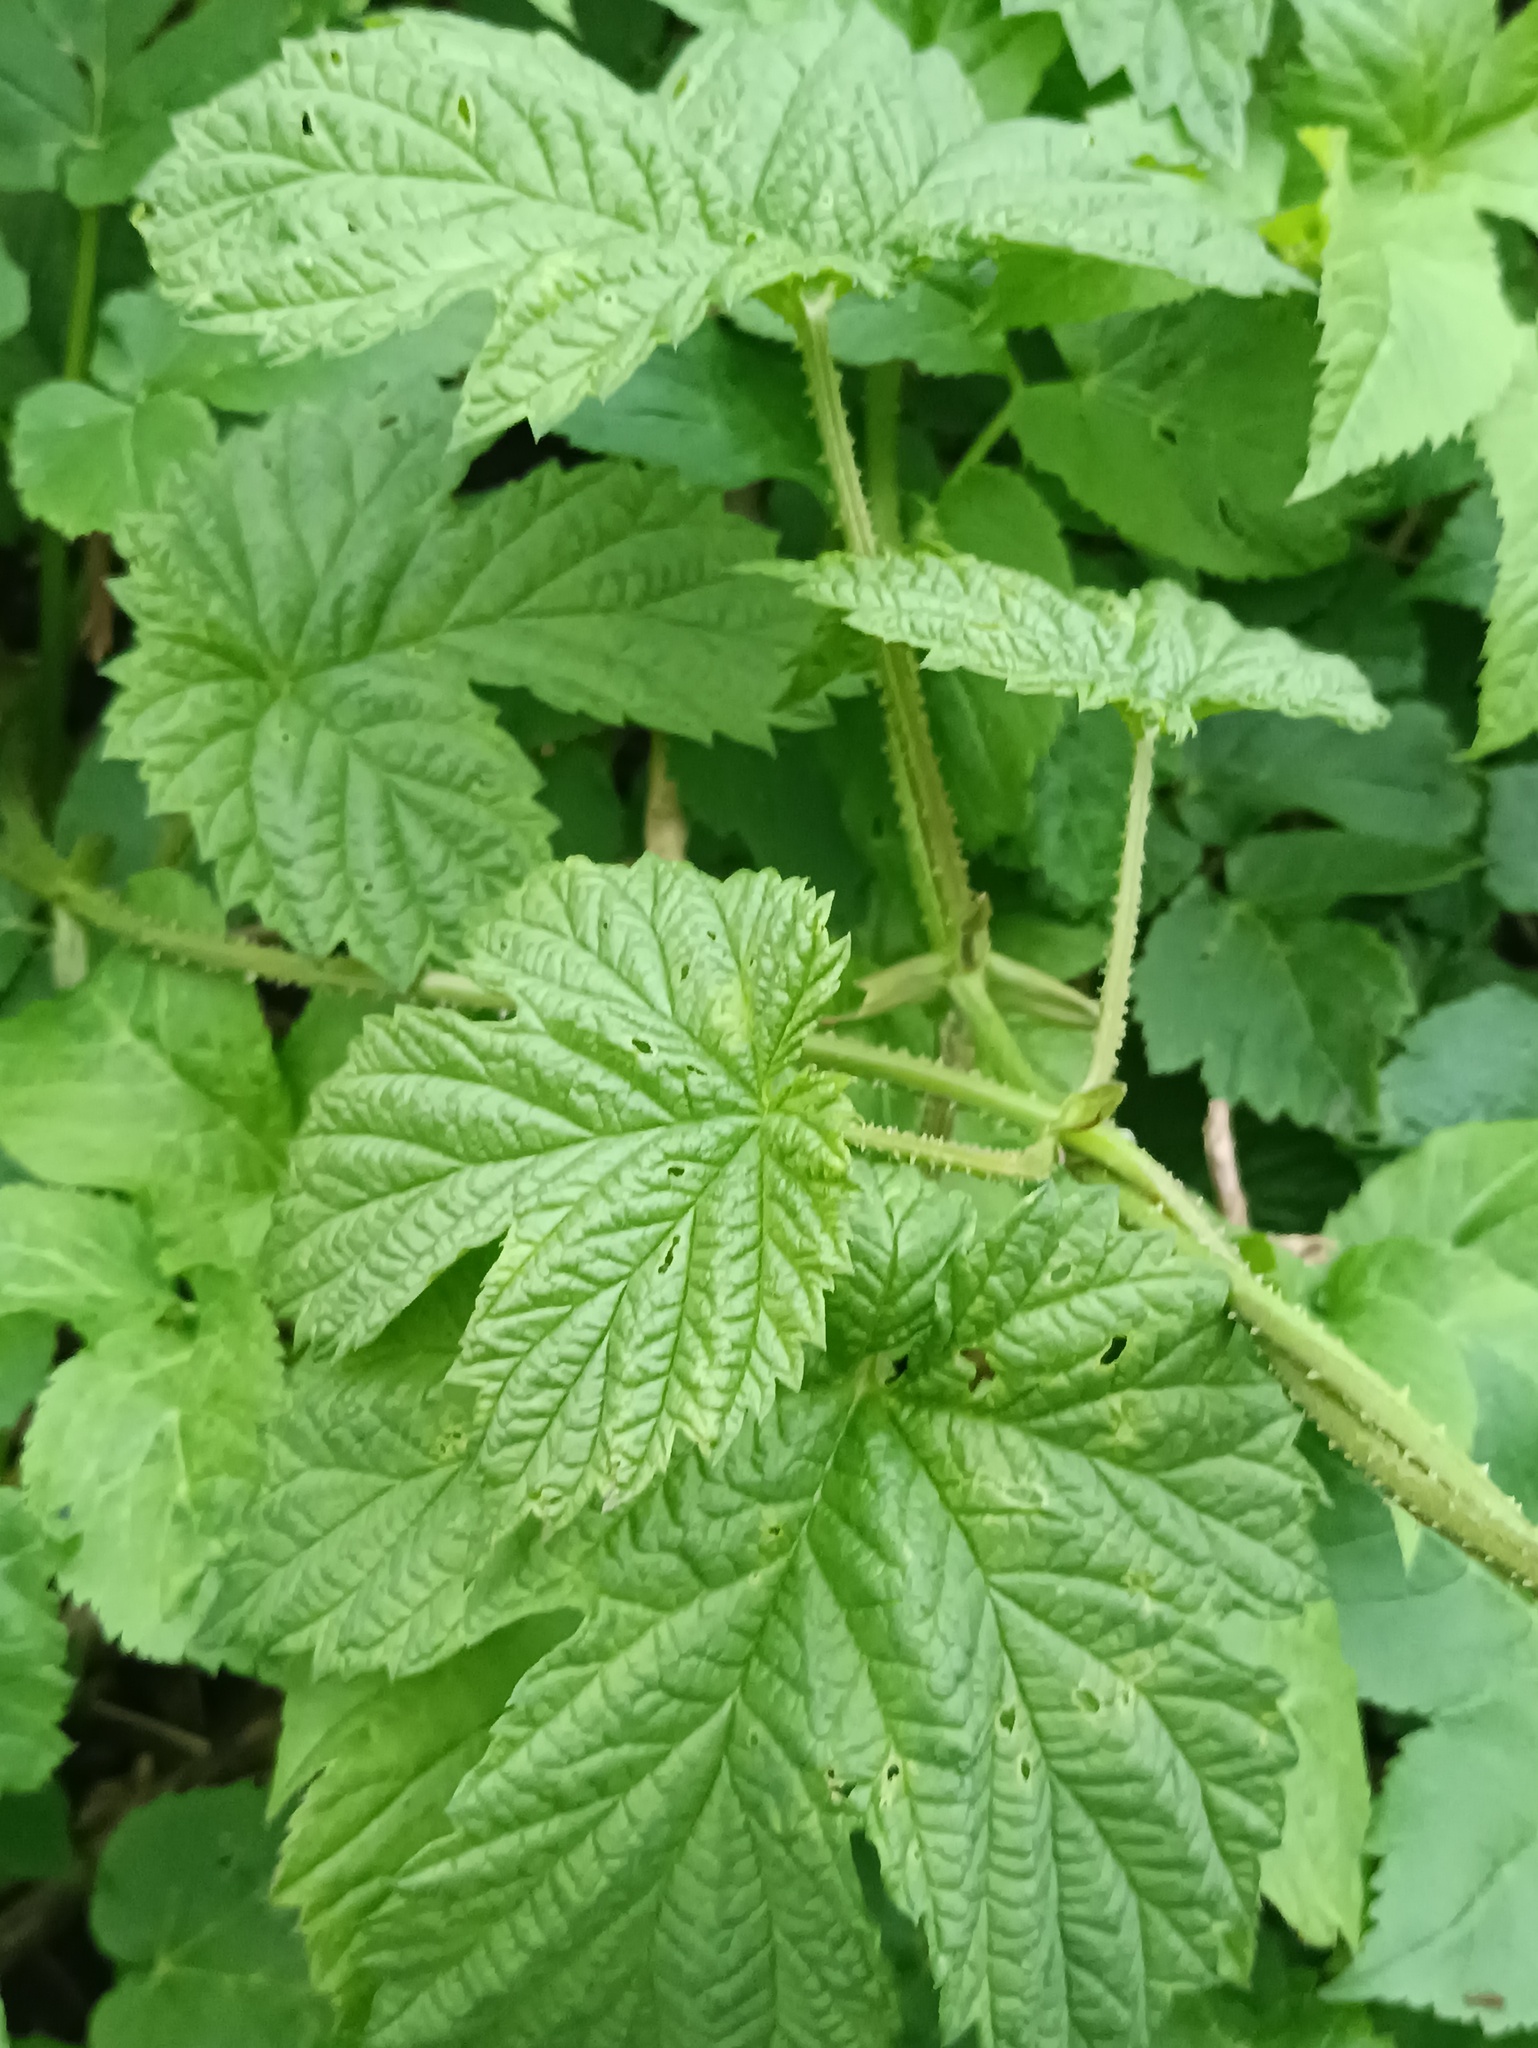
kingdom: Plantae
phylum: Tracheophyta
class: Magnoliopsida
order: Rosales
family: Cannabaceae
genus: Humulus
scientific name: Humulus lupulus
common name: Hop
